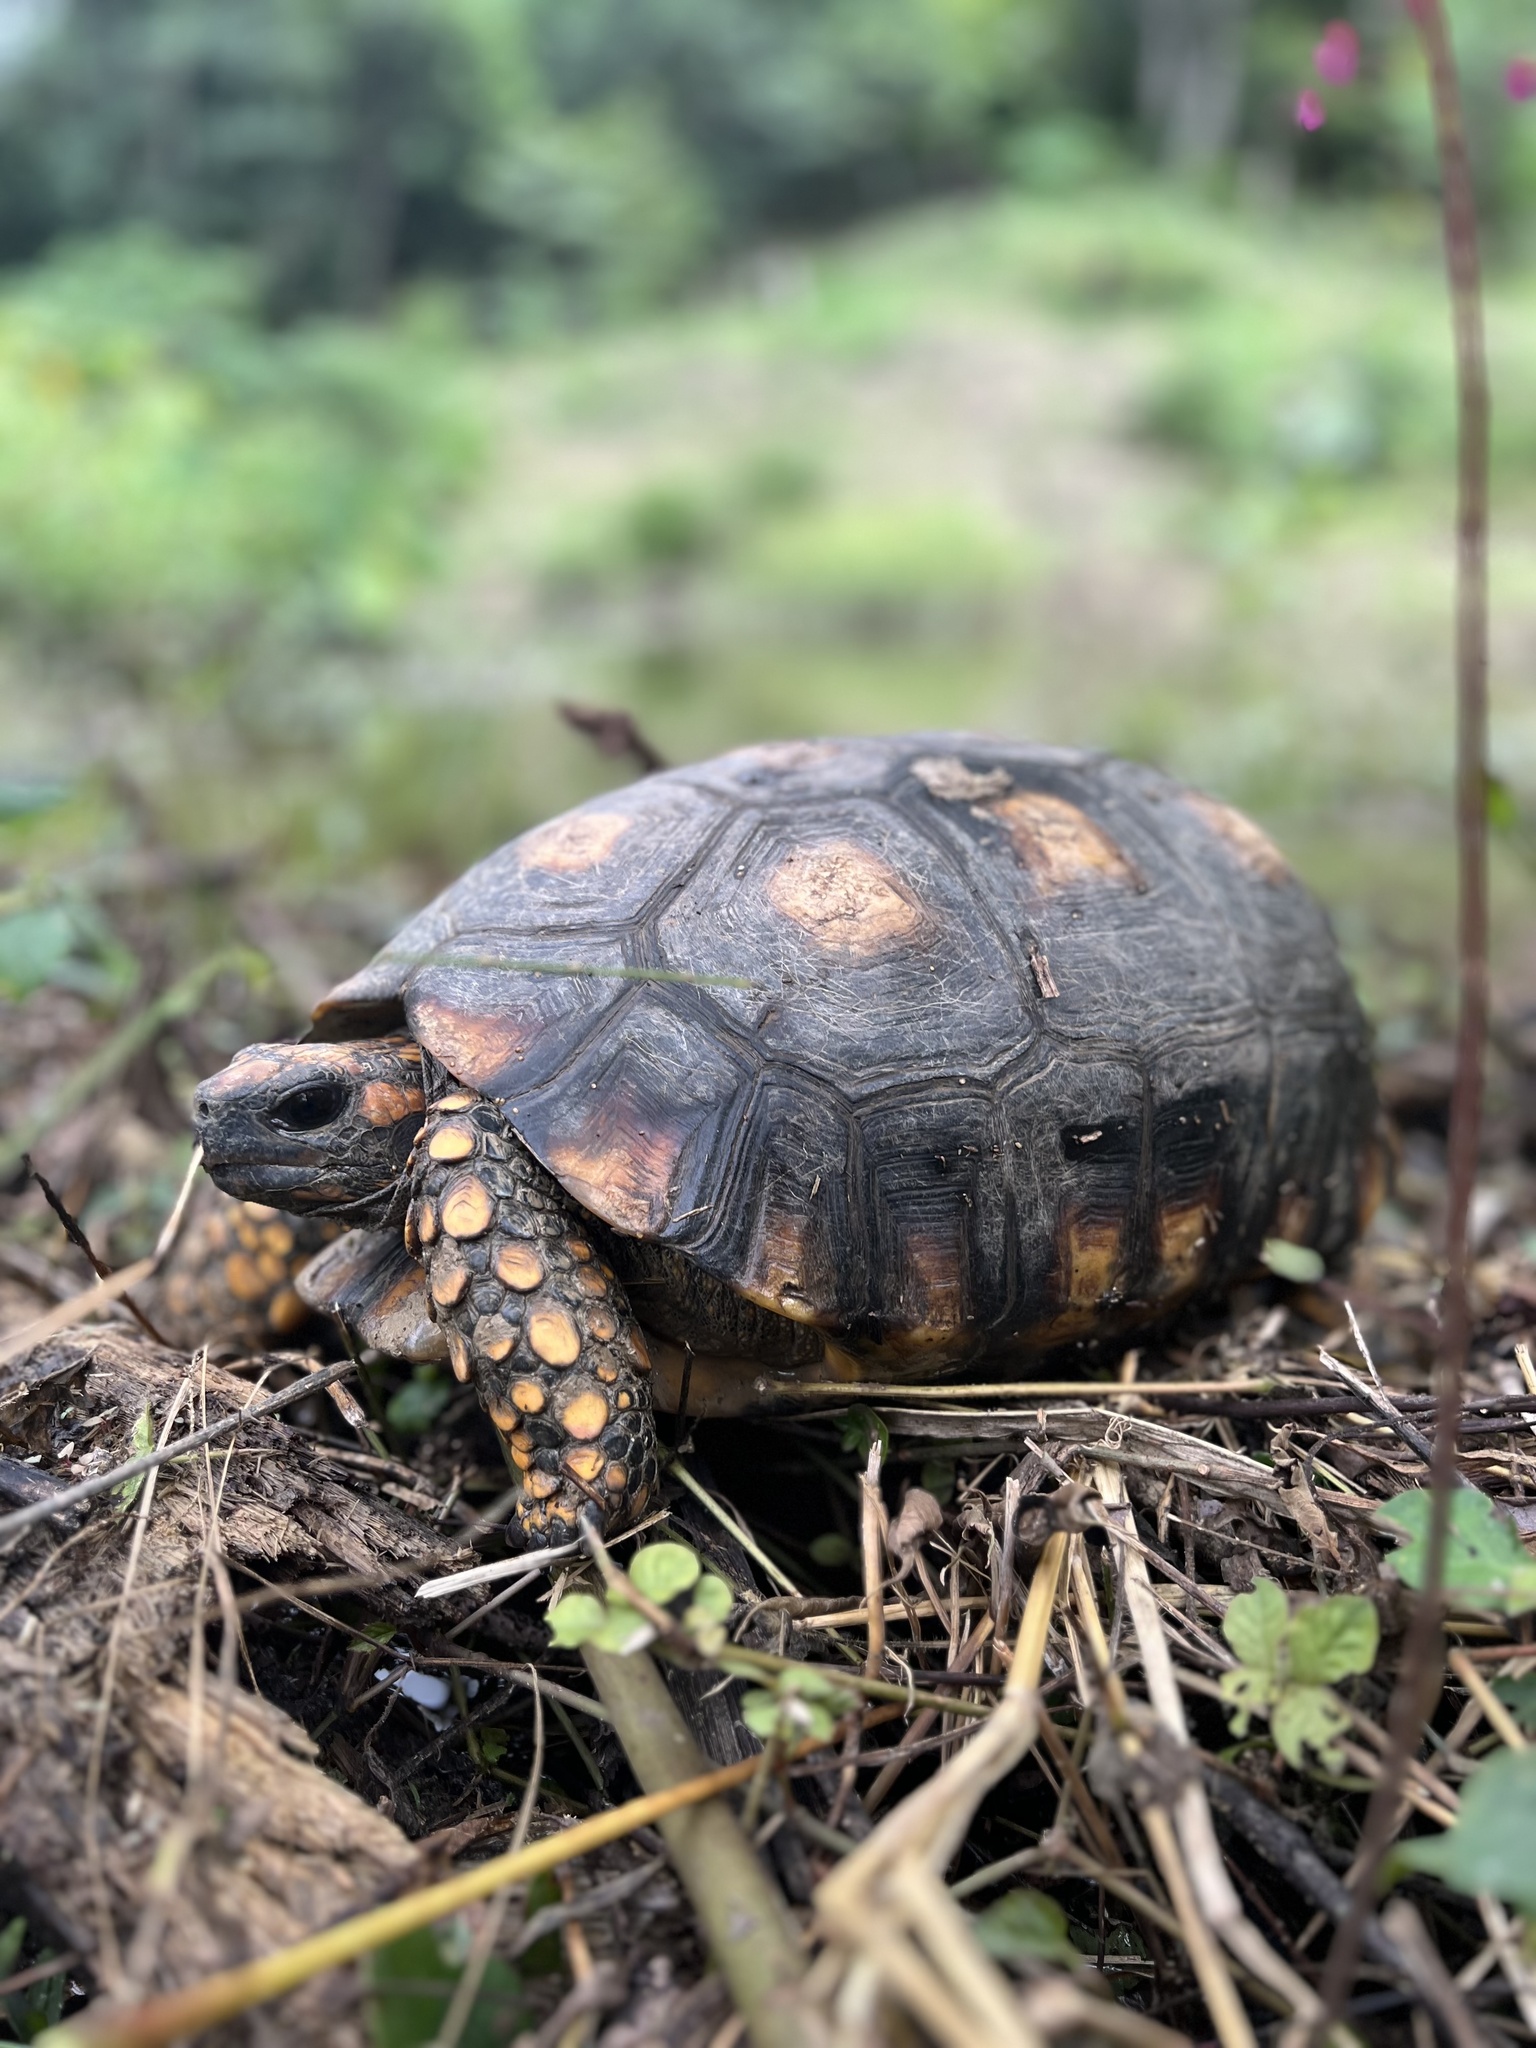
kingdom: Animalia
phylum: Chordata
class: Testudines
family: Testudinidae
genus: Chelonoidis
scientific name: Chelonoidis denticulatus
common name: Yellow-footed tortoise
